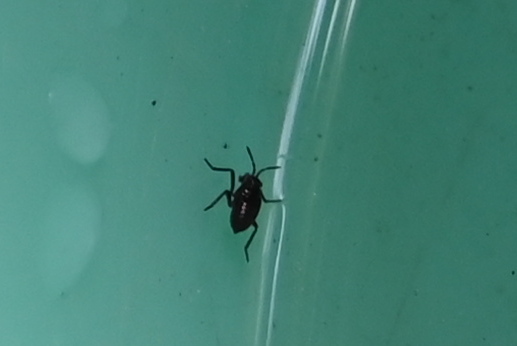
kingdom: Animalia
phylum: Arthropoda
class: Insecta
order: Hemiptera
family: Veliidae
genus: Velia
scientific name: Velia
